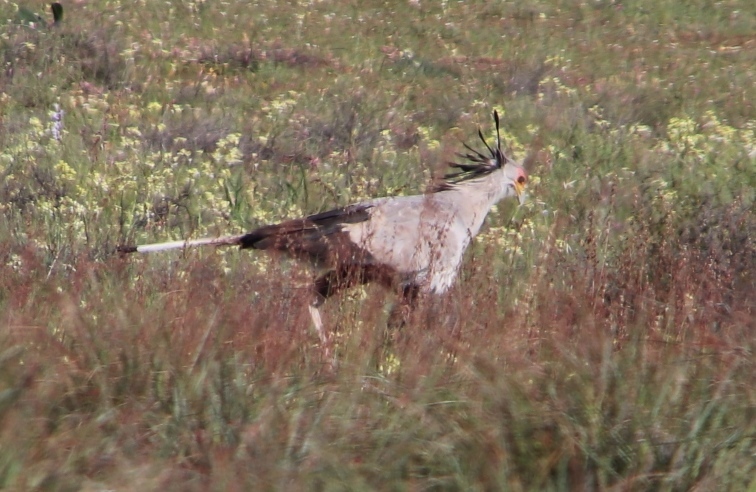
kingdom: Animalia
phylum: Chordata
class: Aves
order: Accipitriformes
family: Sagittariidae
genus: Sagittarius
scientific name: Sagittarius serpentarius
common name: Secretarybird
